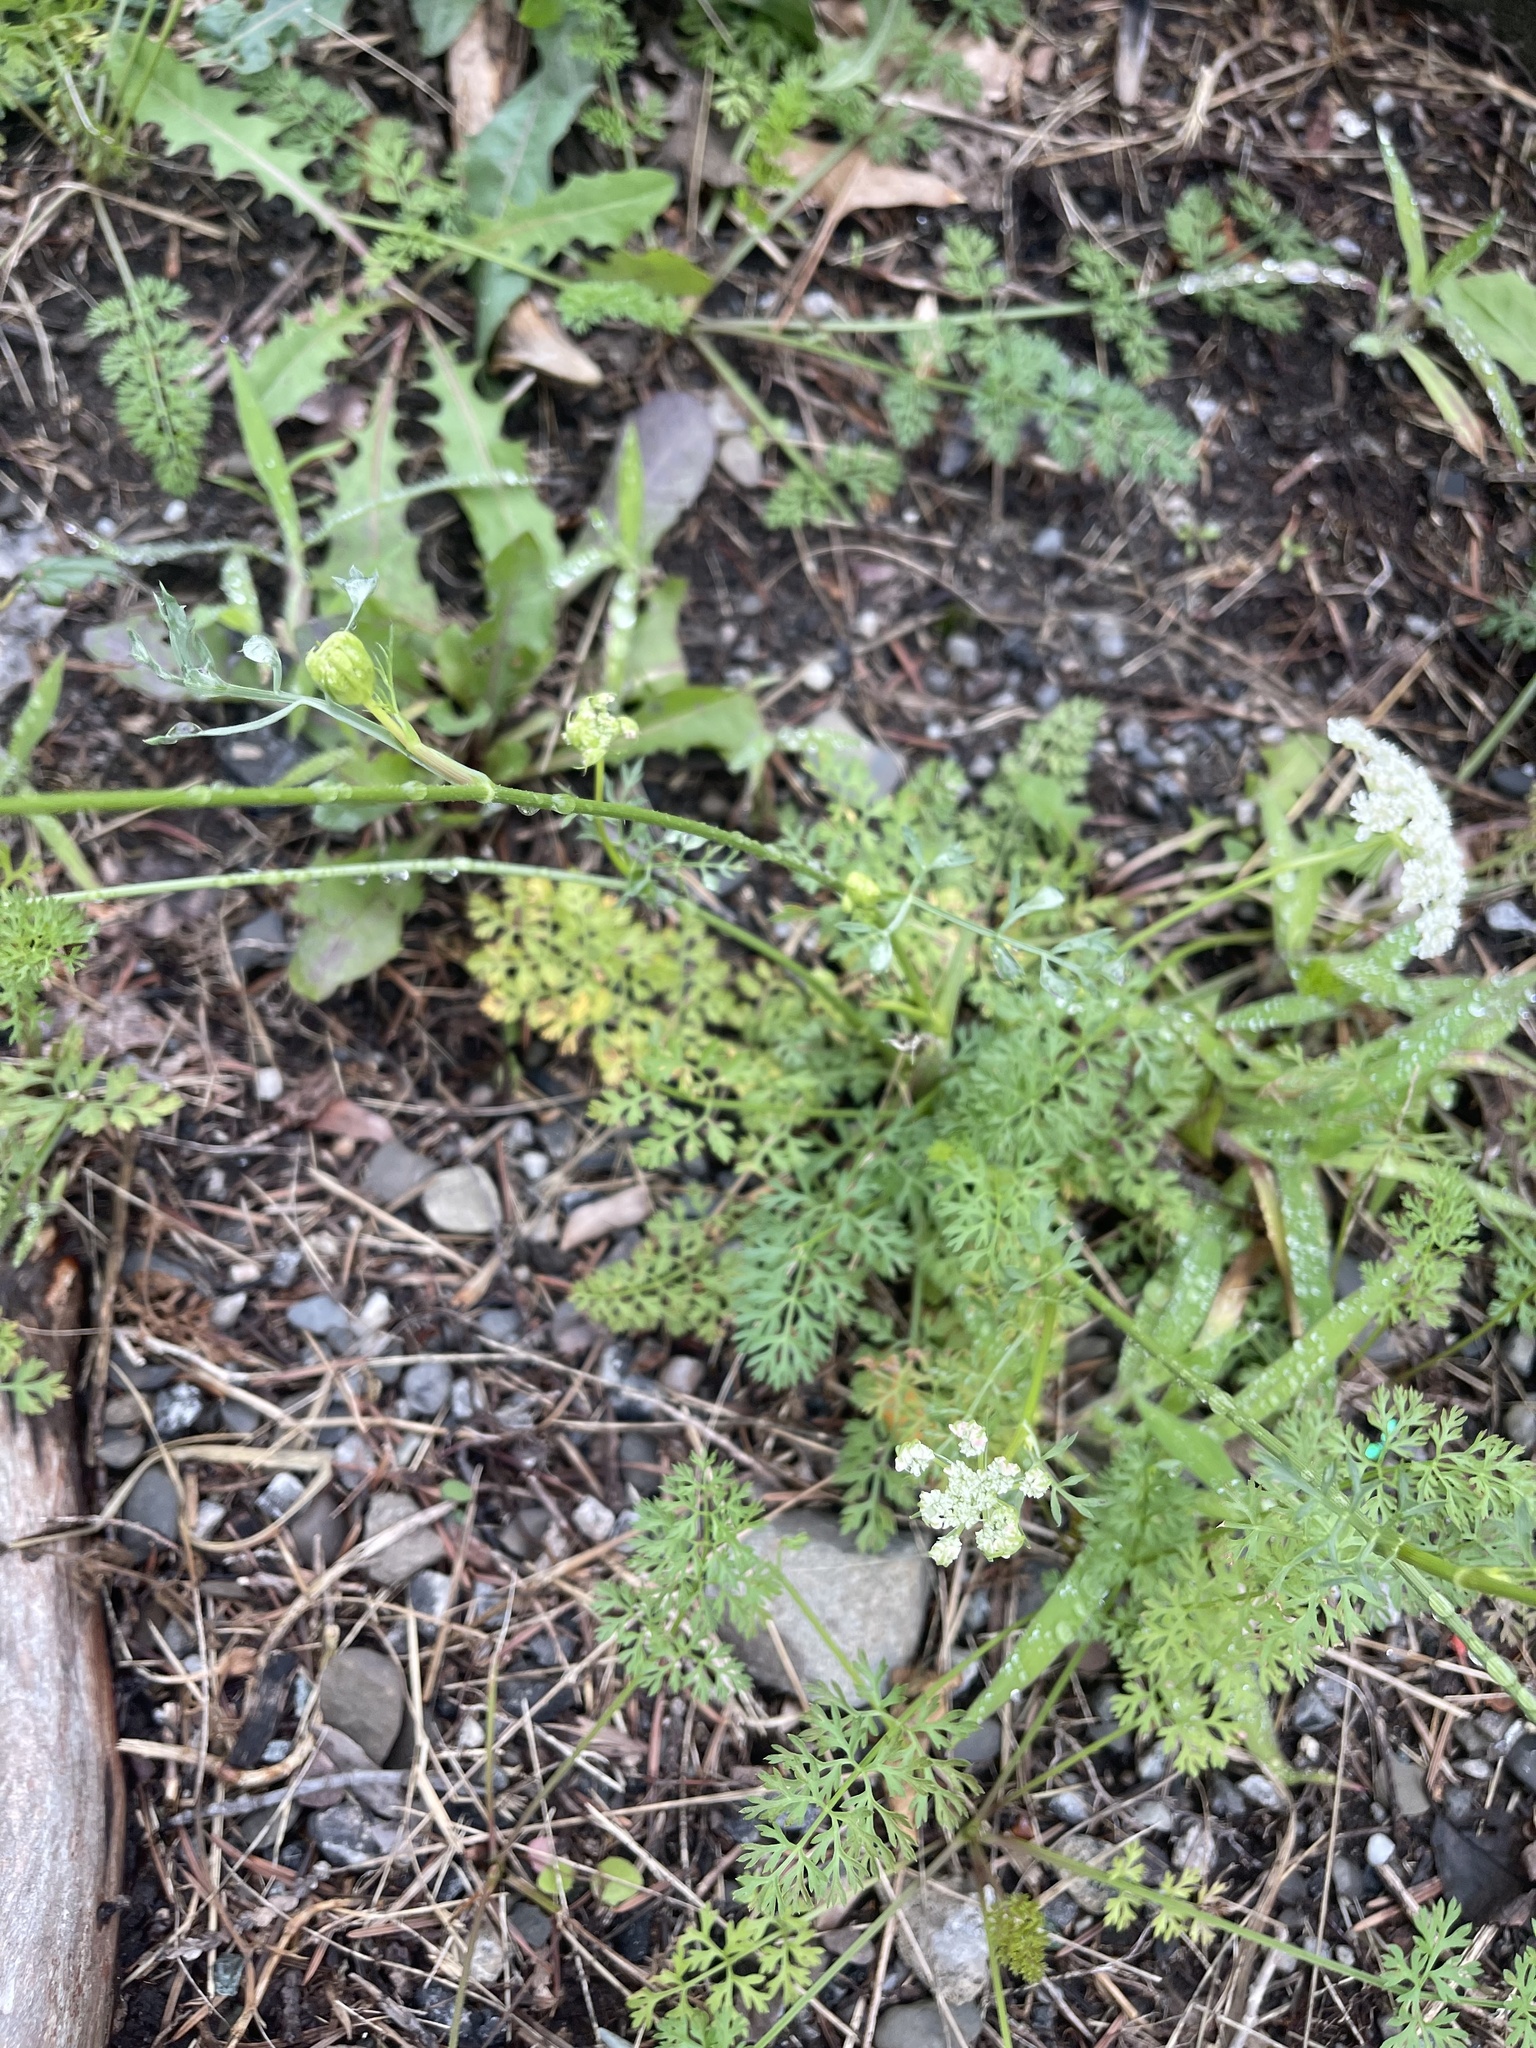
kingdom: Plantae
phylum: Tracheophyta
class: Magnoliopsida
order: Apiales
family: Apiaceae
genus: Daucus
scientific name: Daucus carota
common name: Wild carrot
